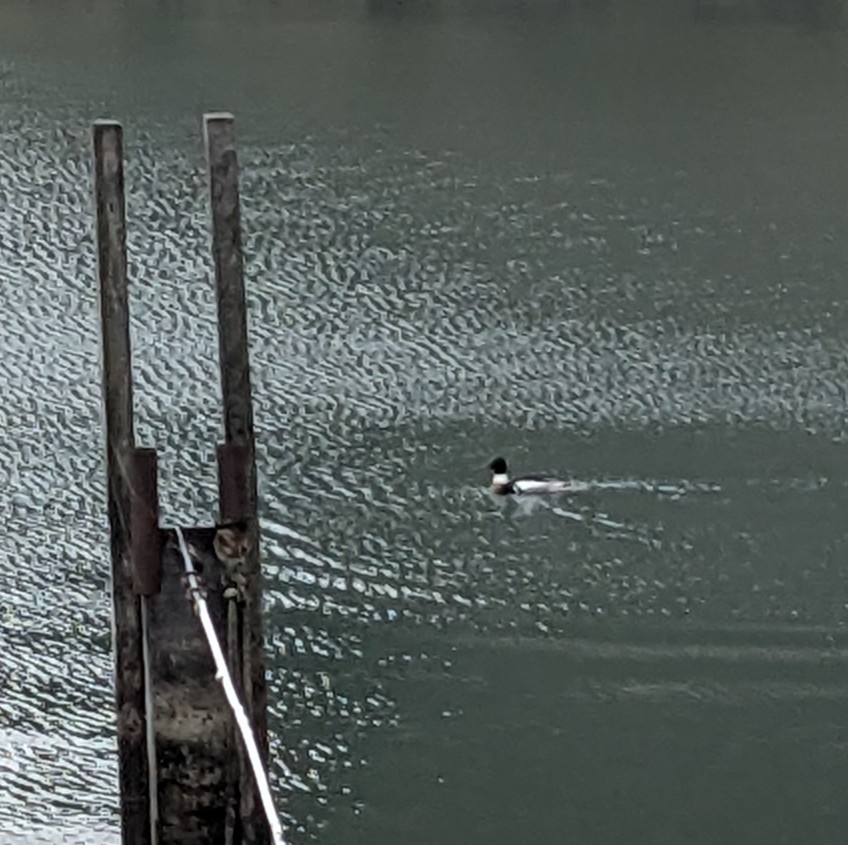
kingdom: Animalia
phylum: Chordata
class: Aves
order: Anseriformes
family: Anatidae
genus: Mergus
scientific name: Mergus serrator
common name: Red-breasted merganser
